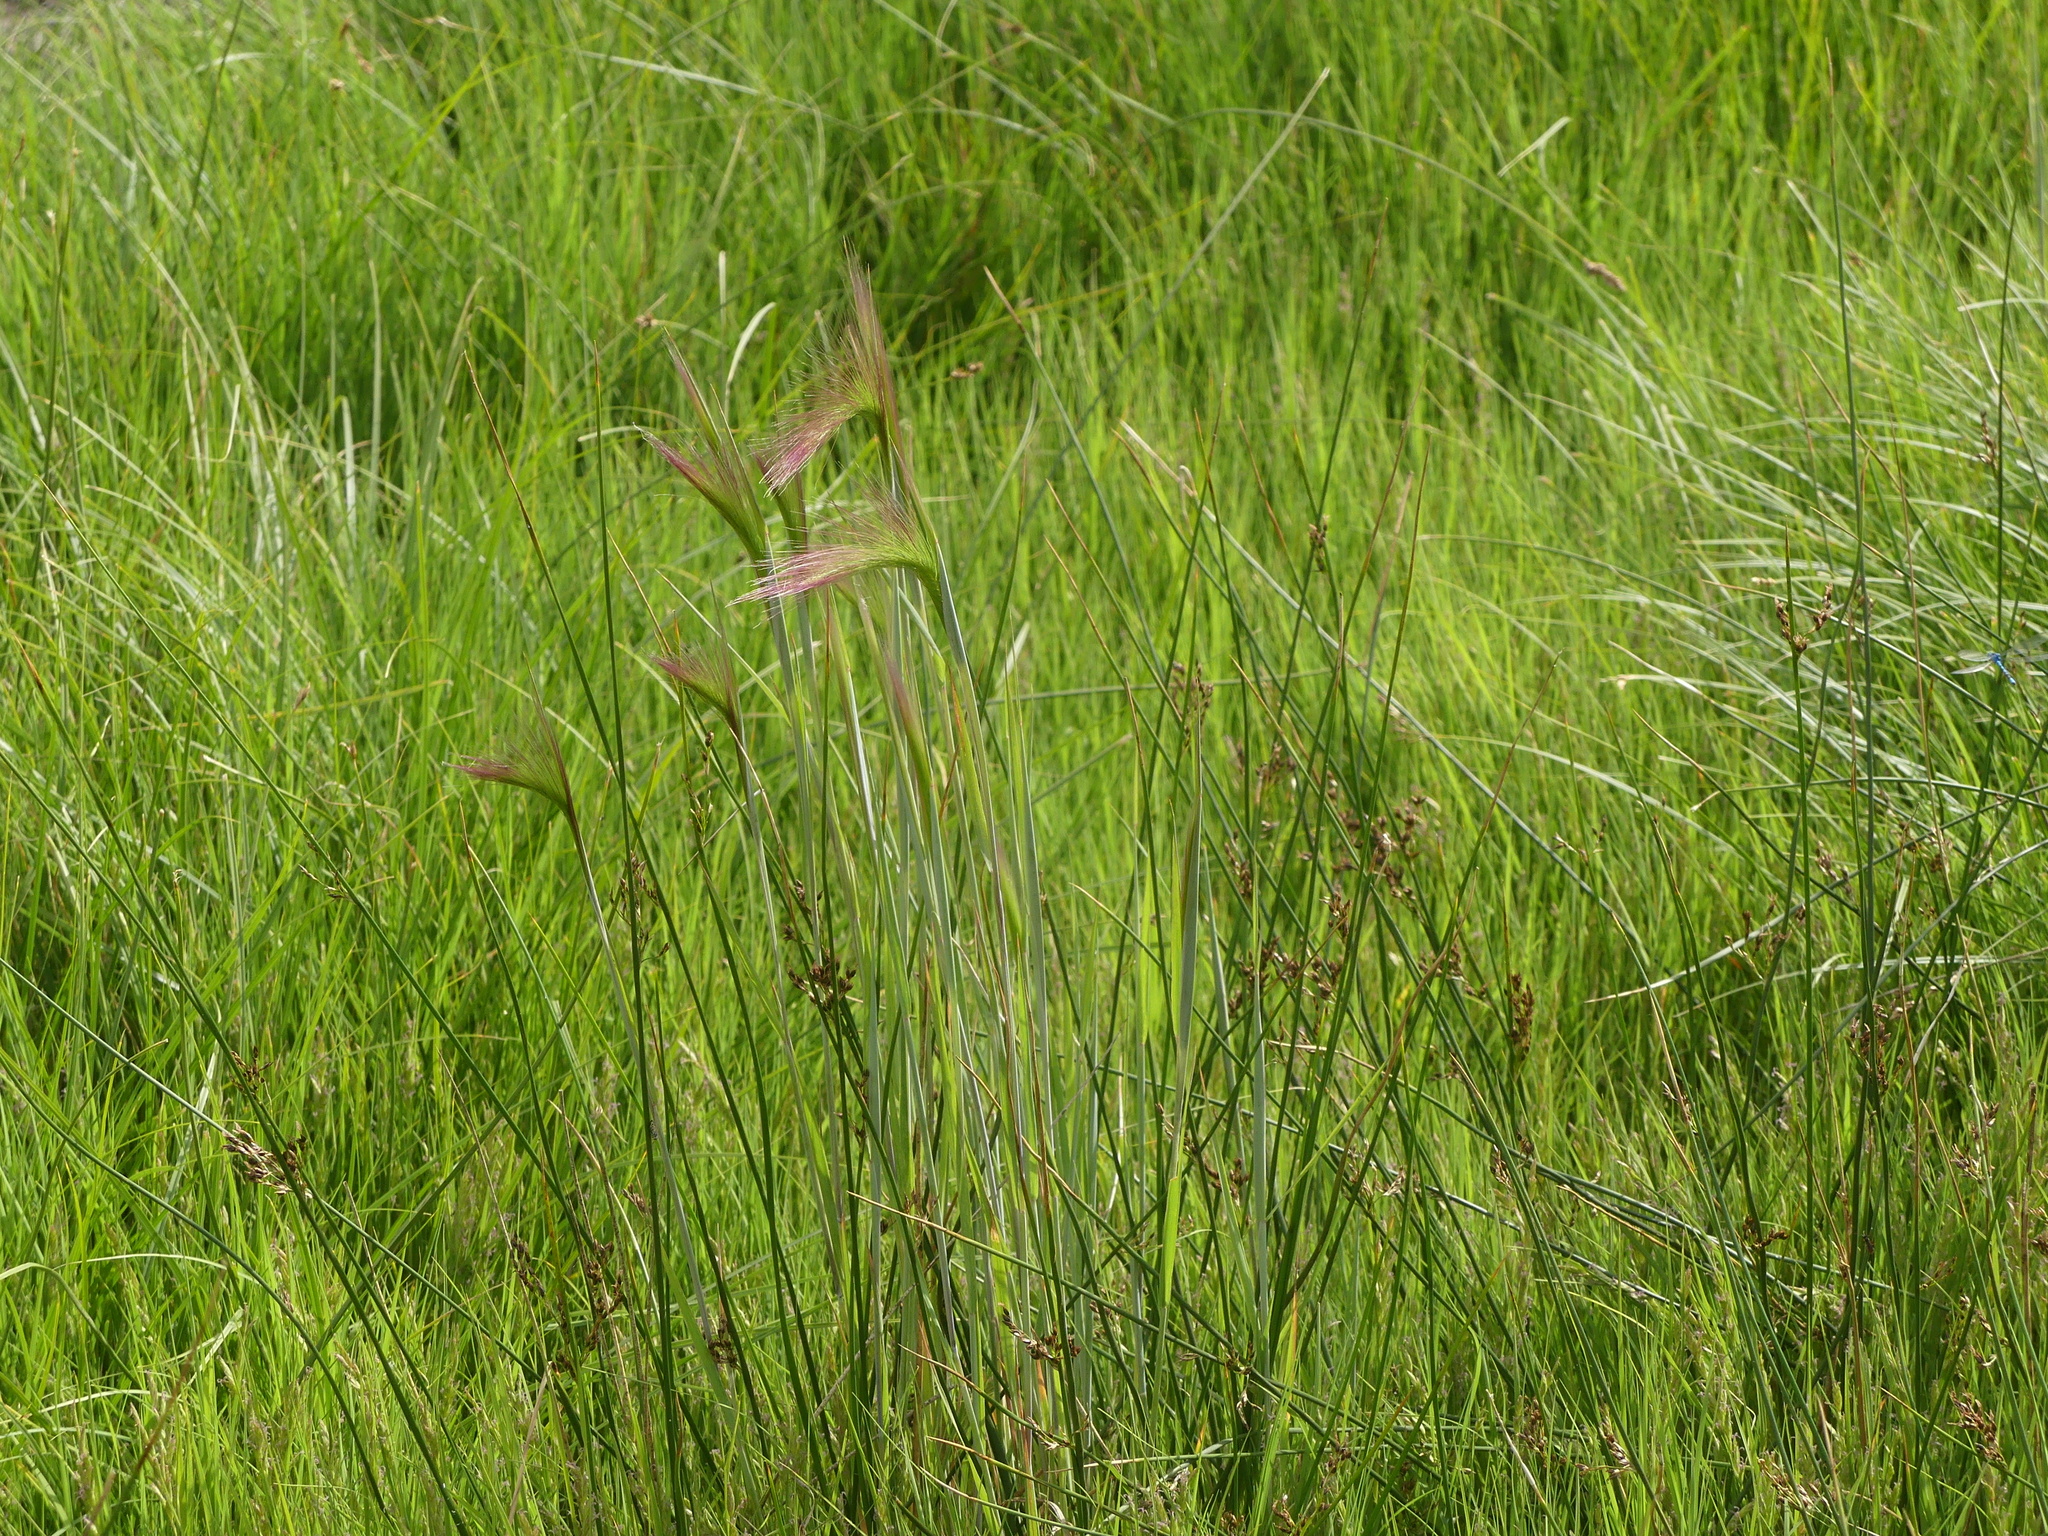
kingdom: Plantae
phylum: Tracheophyta
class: Liliopsida
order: Poales
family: Poaceae
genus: Hordeum
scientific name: Hordeum jubatum
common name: Foxtail barley
